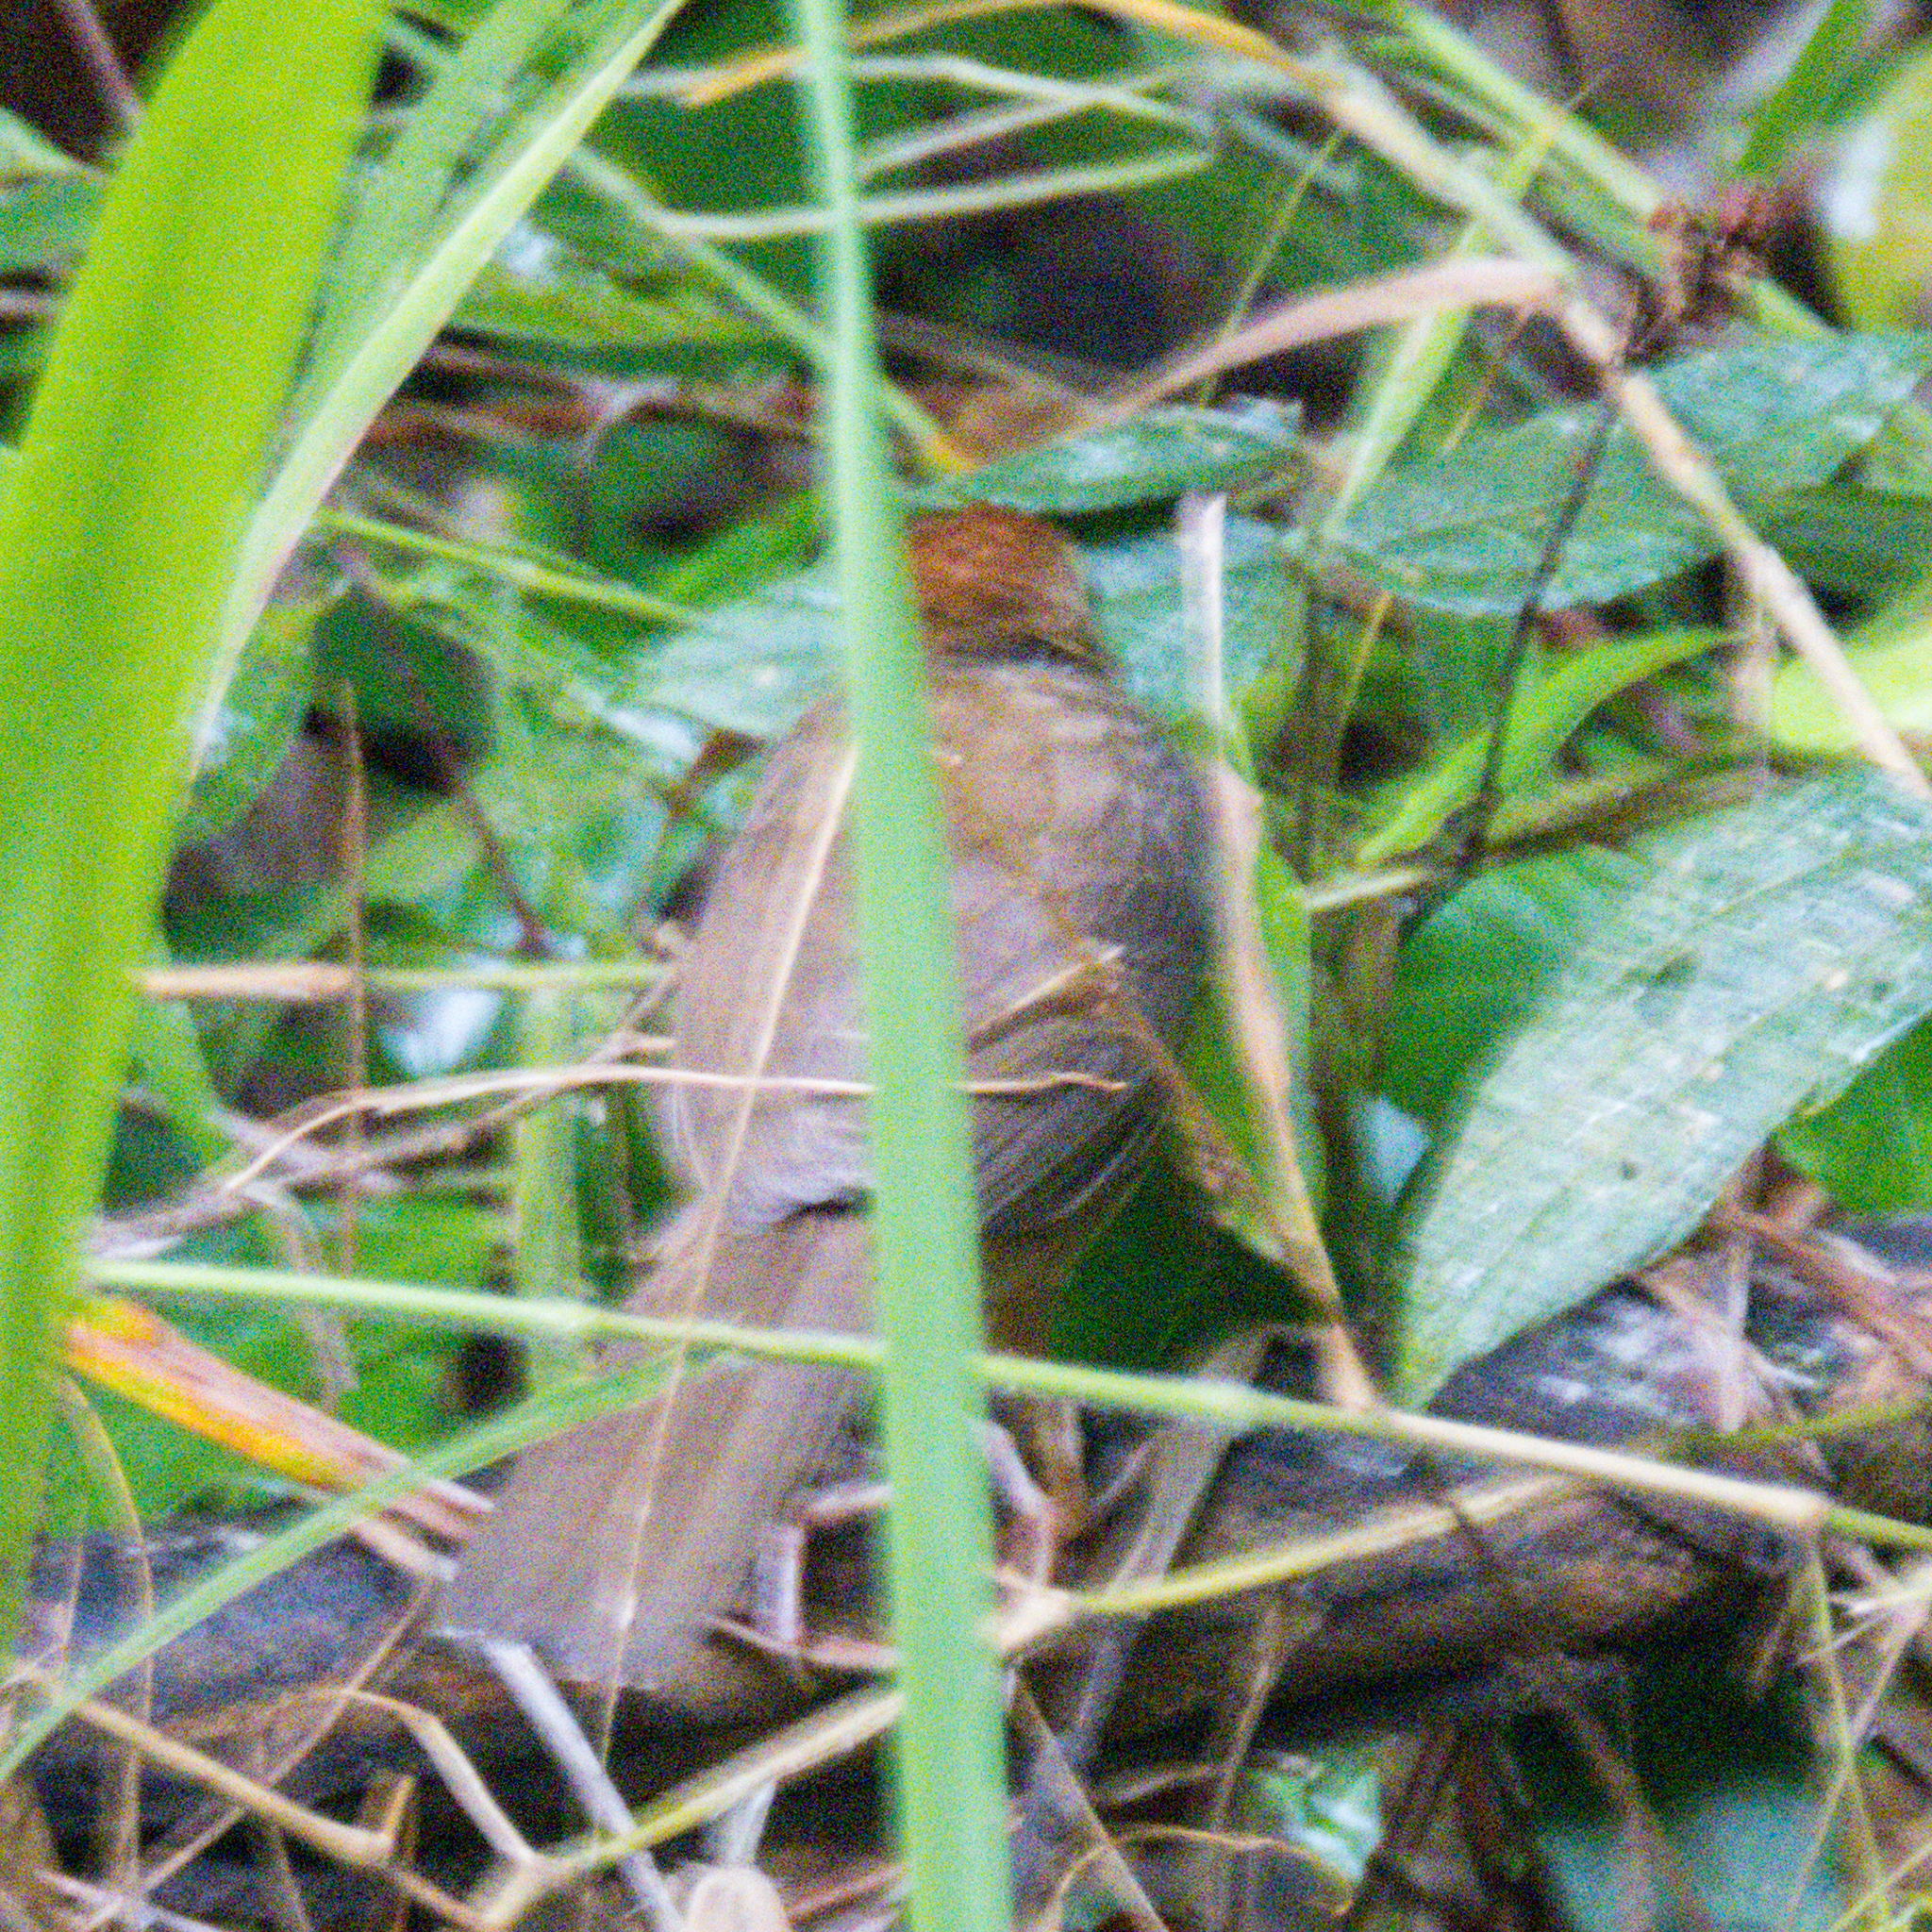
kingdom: Animalia
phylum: Chordata
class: Aves
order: Passeriformes
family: Pellorneidae
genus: Pellorneum
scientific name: Pellorneum ruficeps
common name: Puff-throated babbler
